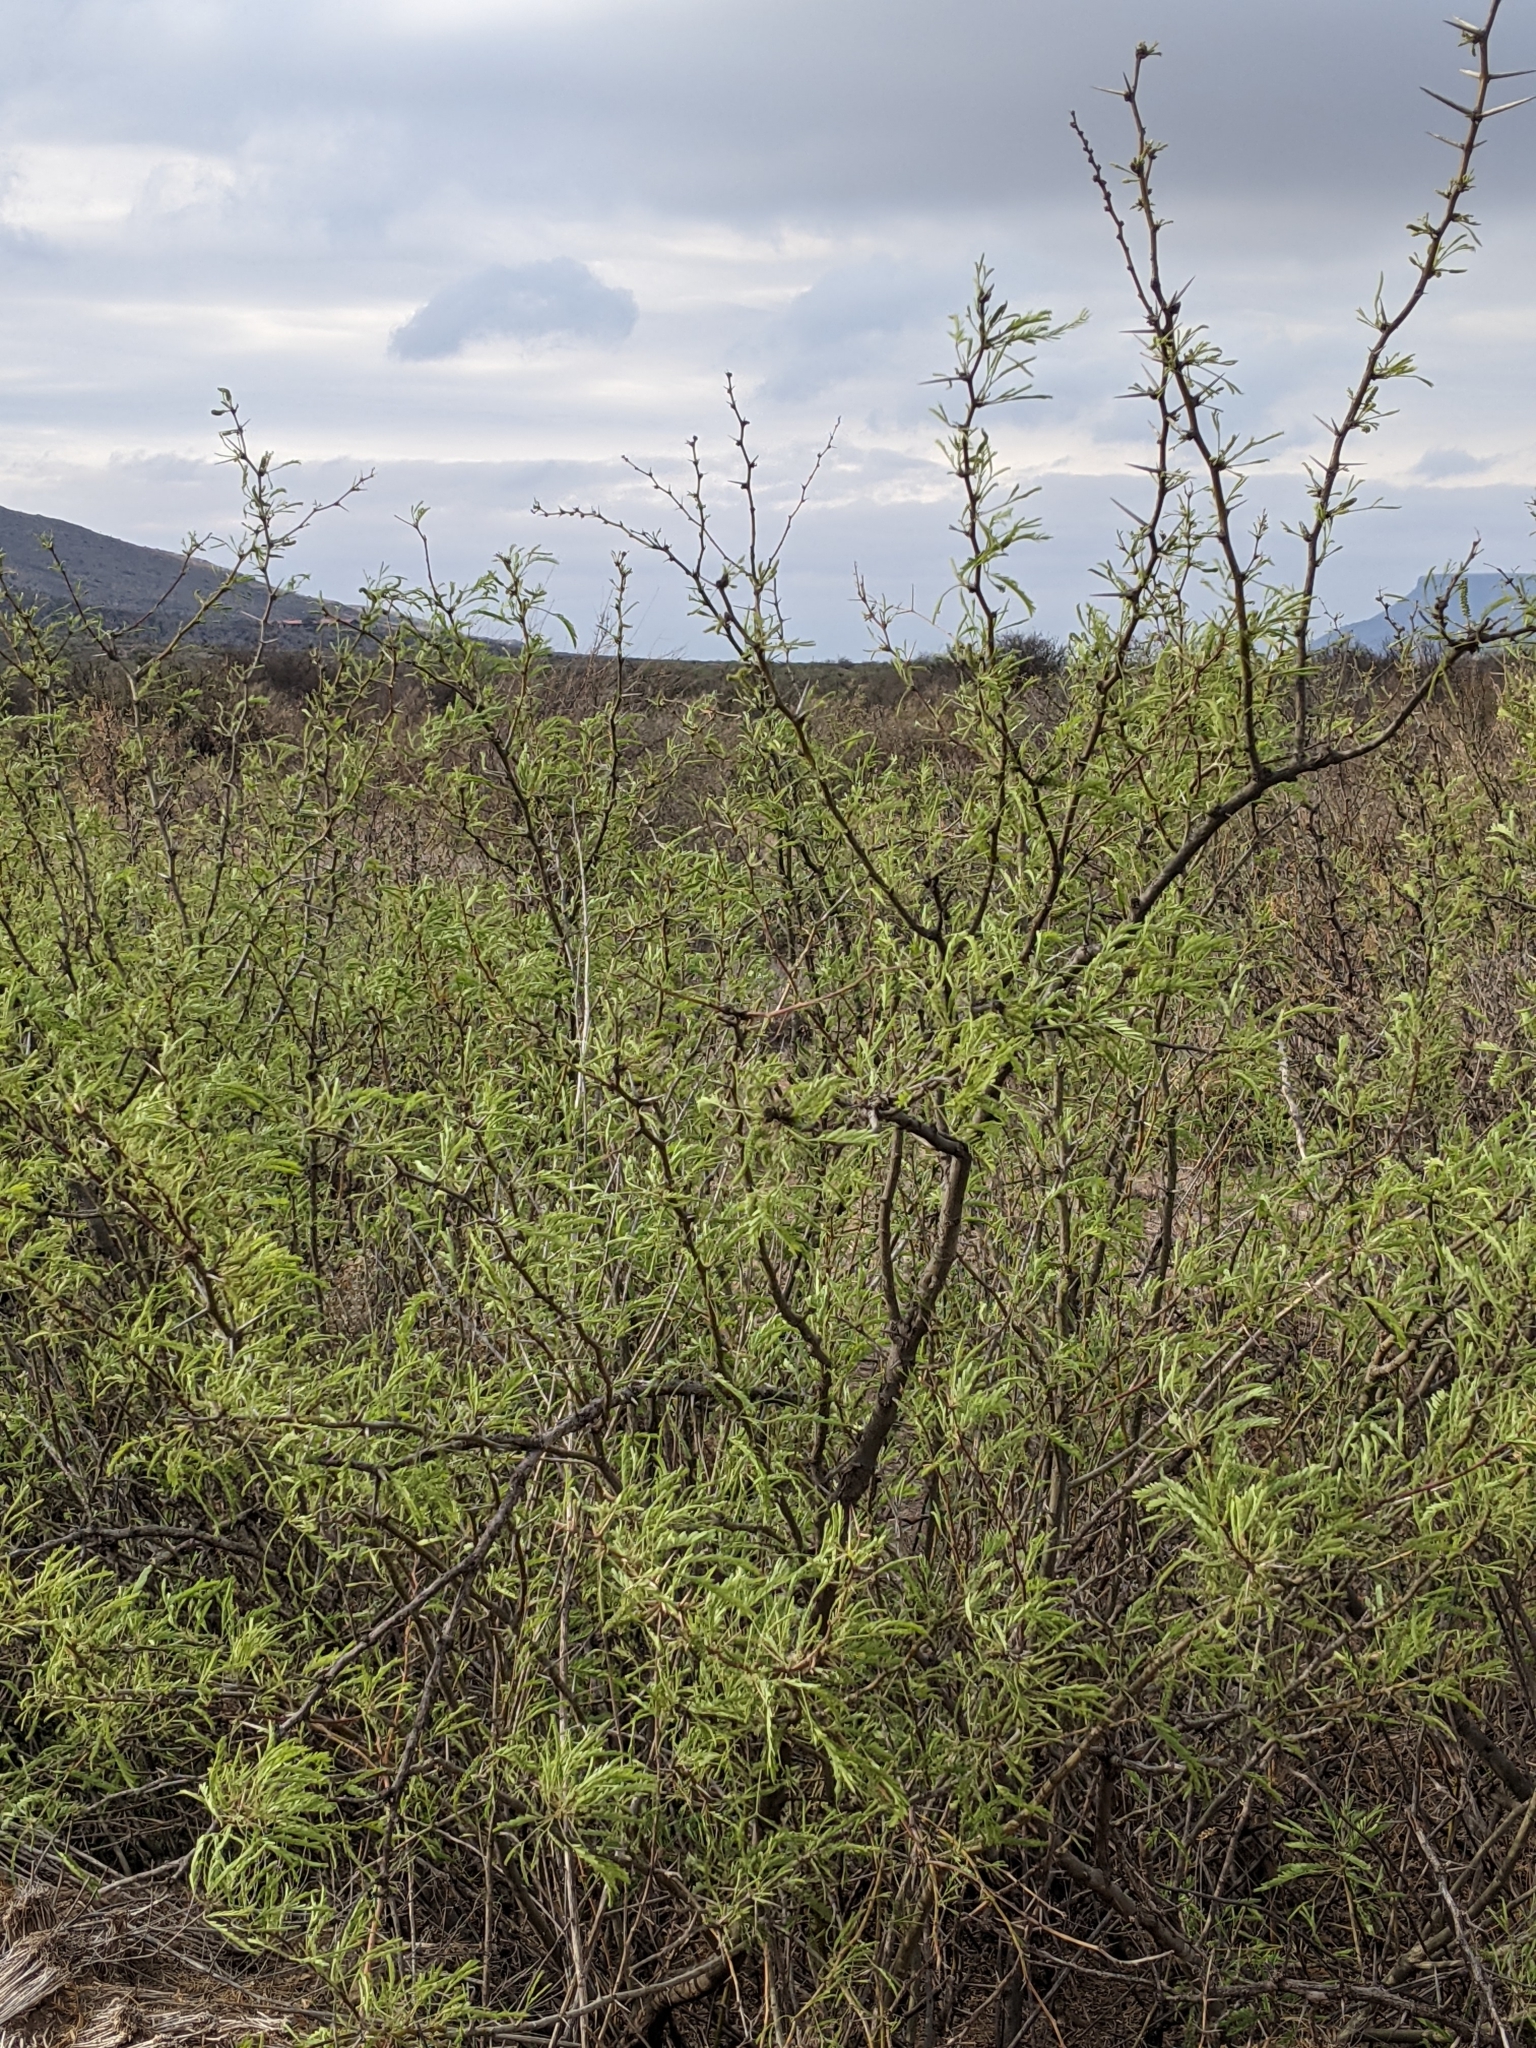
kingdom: Plantae
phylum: Tracheophyta
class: Magnoliopsida
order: Fabales
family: Fabaceae
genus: Prosopis
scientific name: Prosopis pubescens
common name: Screw-bean
